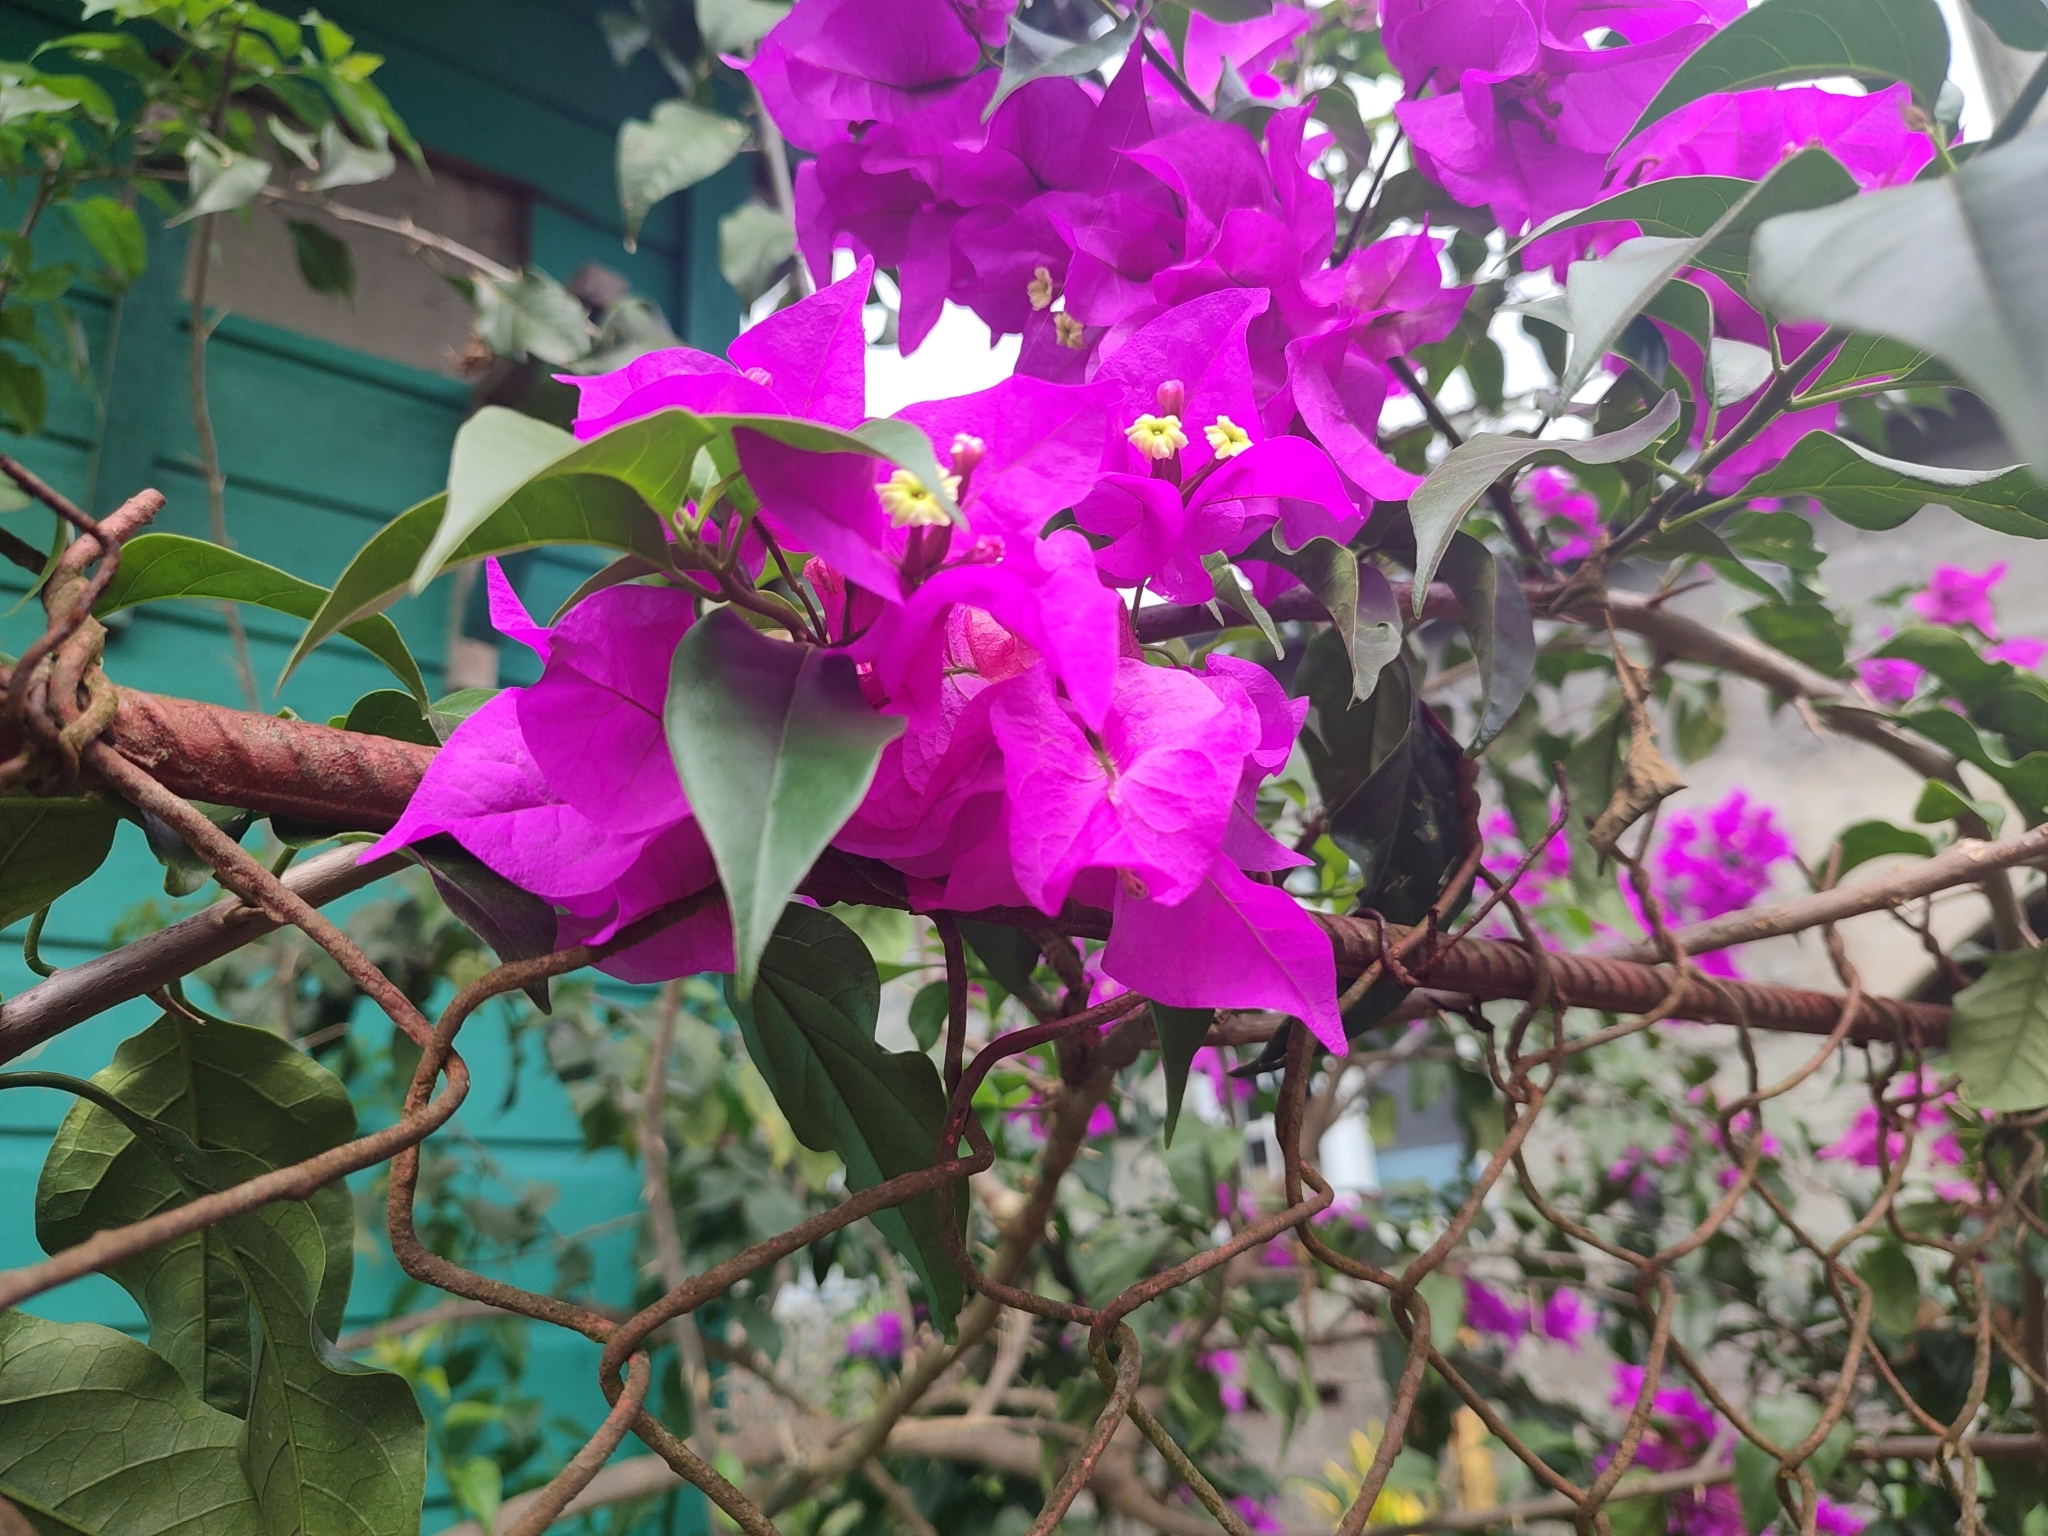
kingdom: Plantae
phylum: Tracheophyta
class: Magnoliopsida
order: Caryophyllales
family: Nyctaginaceae
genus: Bougainvillea
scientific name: Bougainvillea glabra
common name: Paperflower
